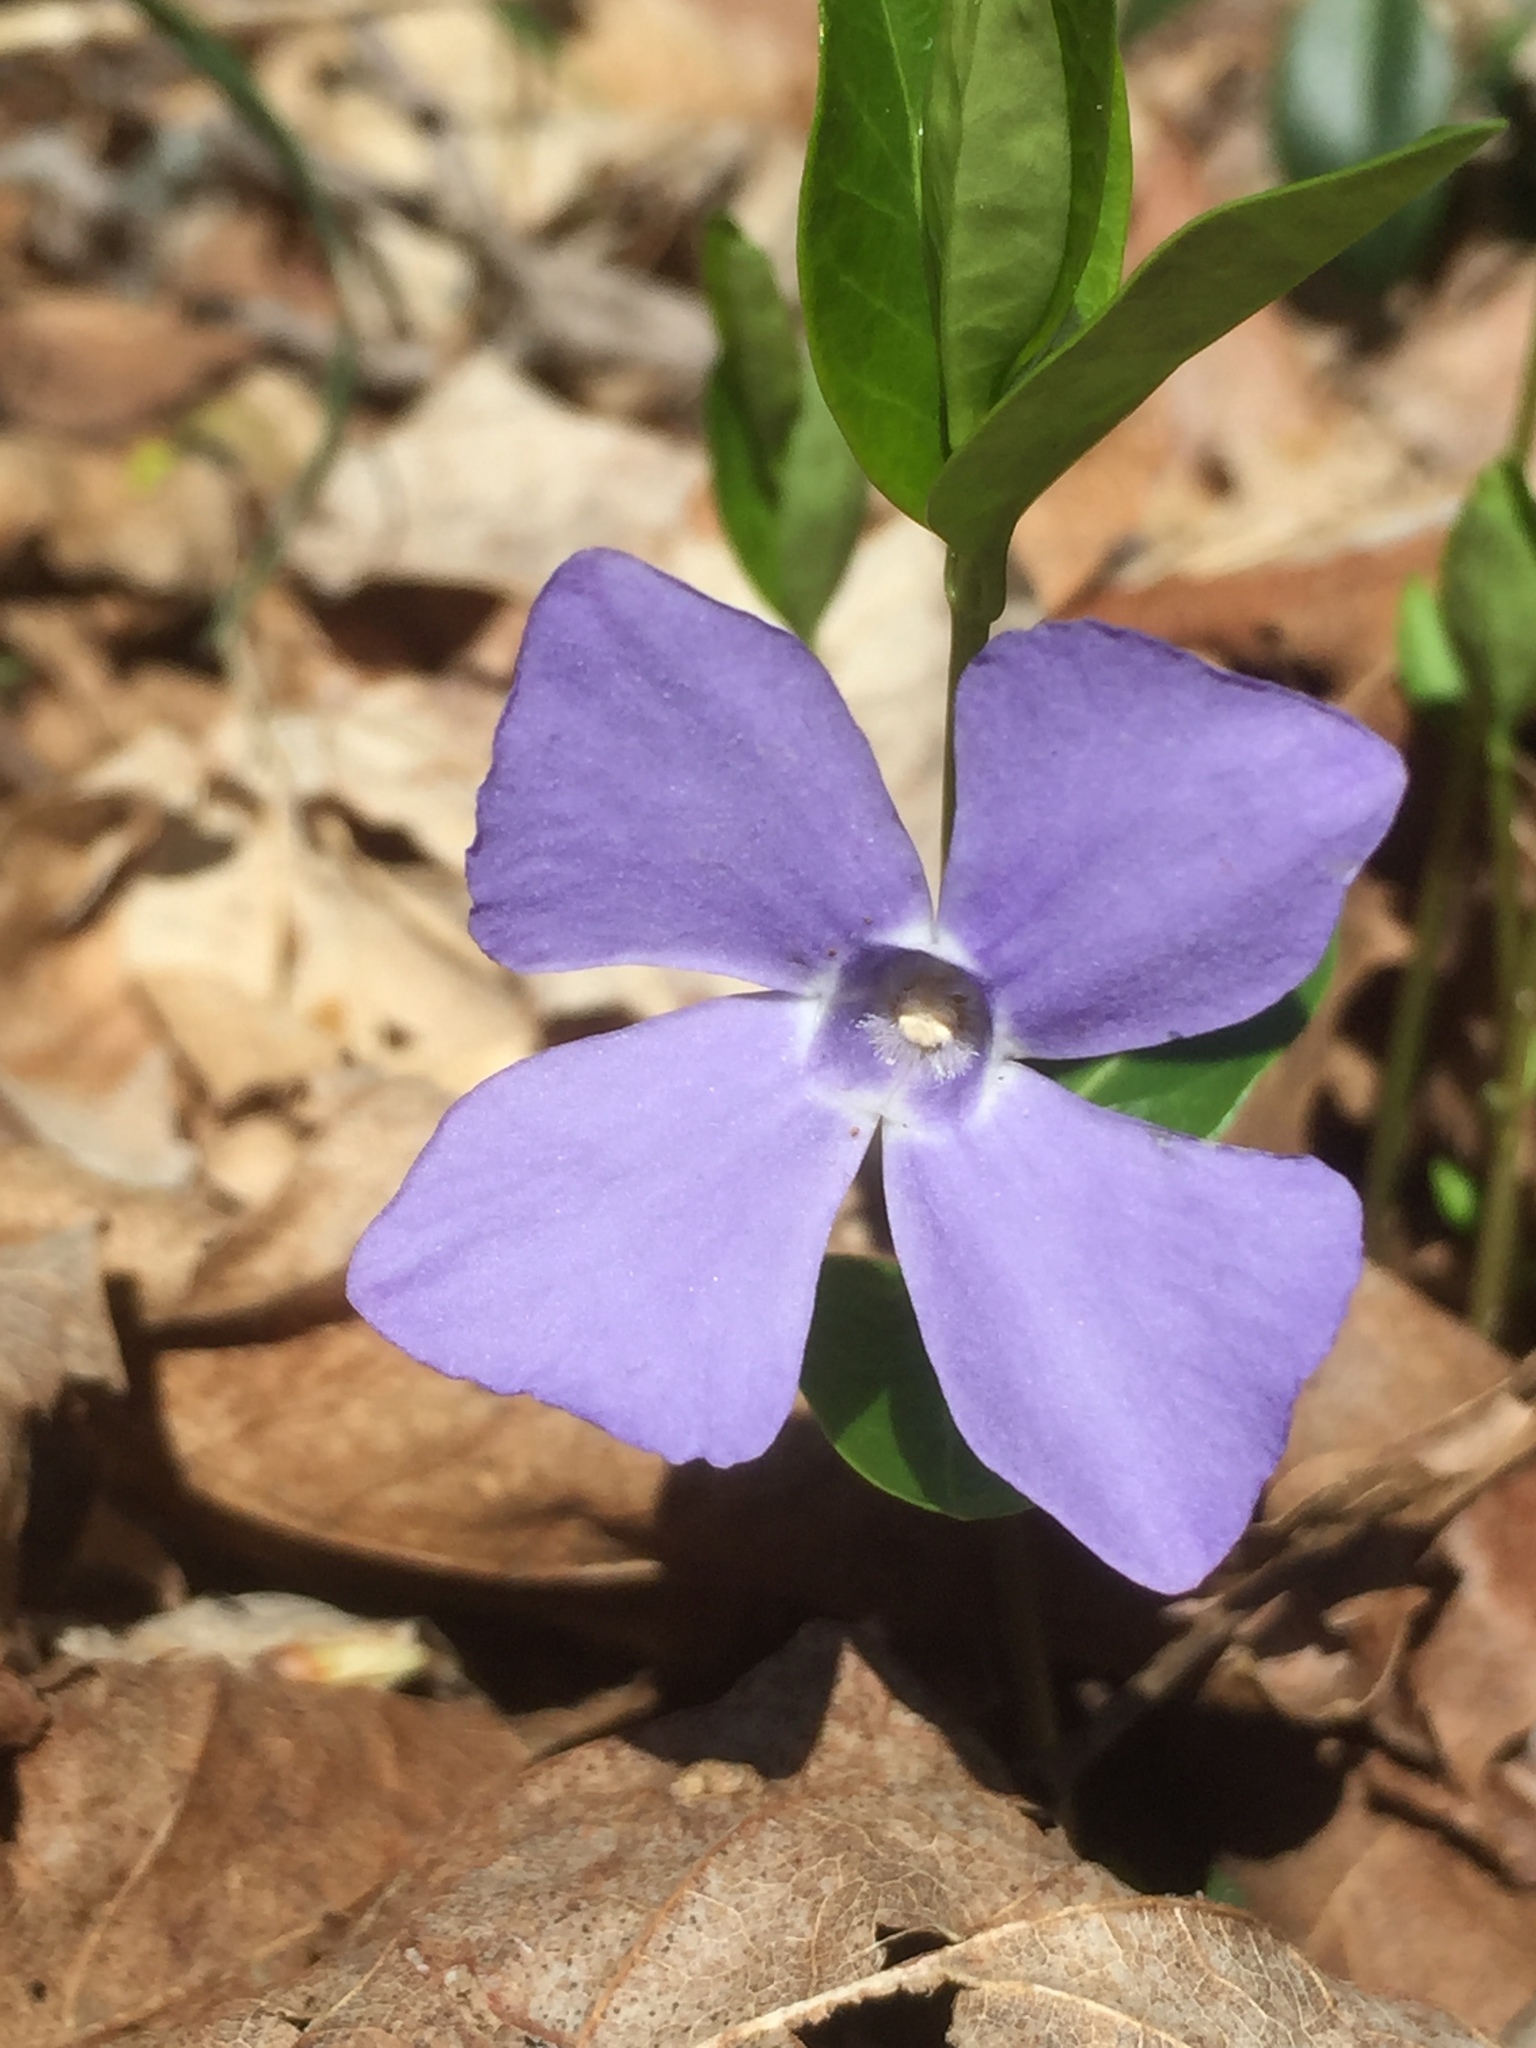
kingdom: Plantae
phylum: Tracheophyta
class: Magnoliopsida
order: Gentianales
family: Apocynaceae
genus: Vinca
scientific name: Vinca minor
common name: Lesser periwinkle
